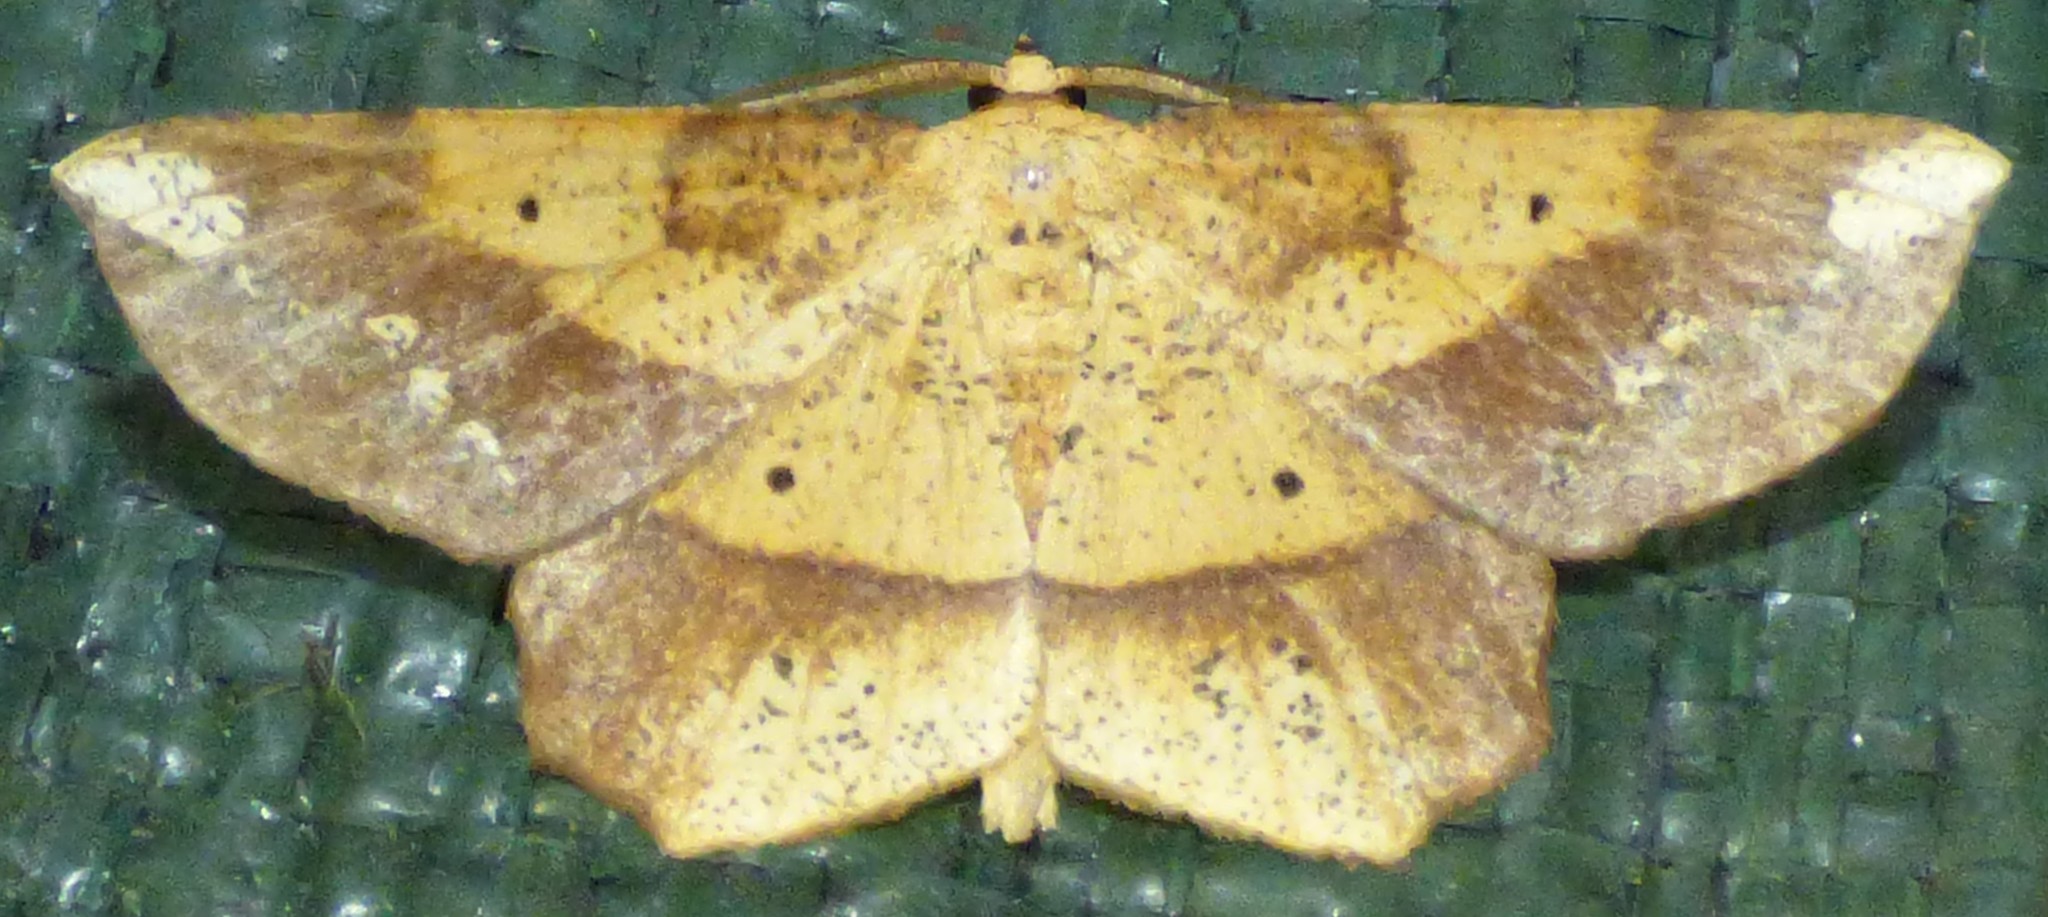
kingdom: Animalia
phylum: Arthropoda
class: Insecta
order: Lepidoptera
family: Geometridae
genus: Euchlaena
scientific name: Euchlaena amoenaria
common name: Deep yellow euchlaena
